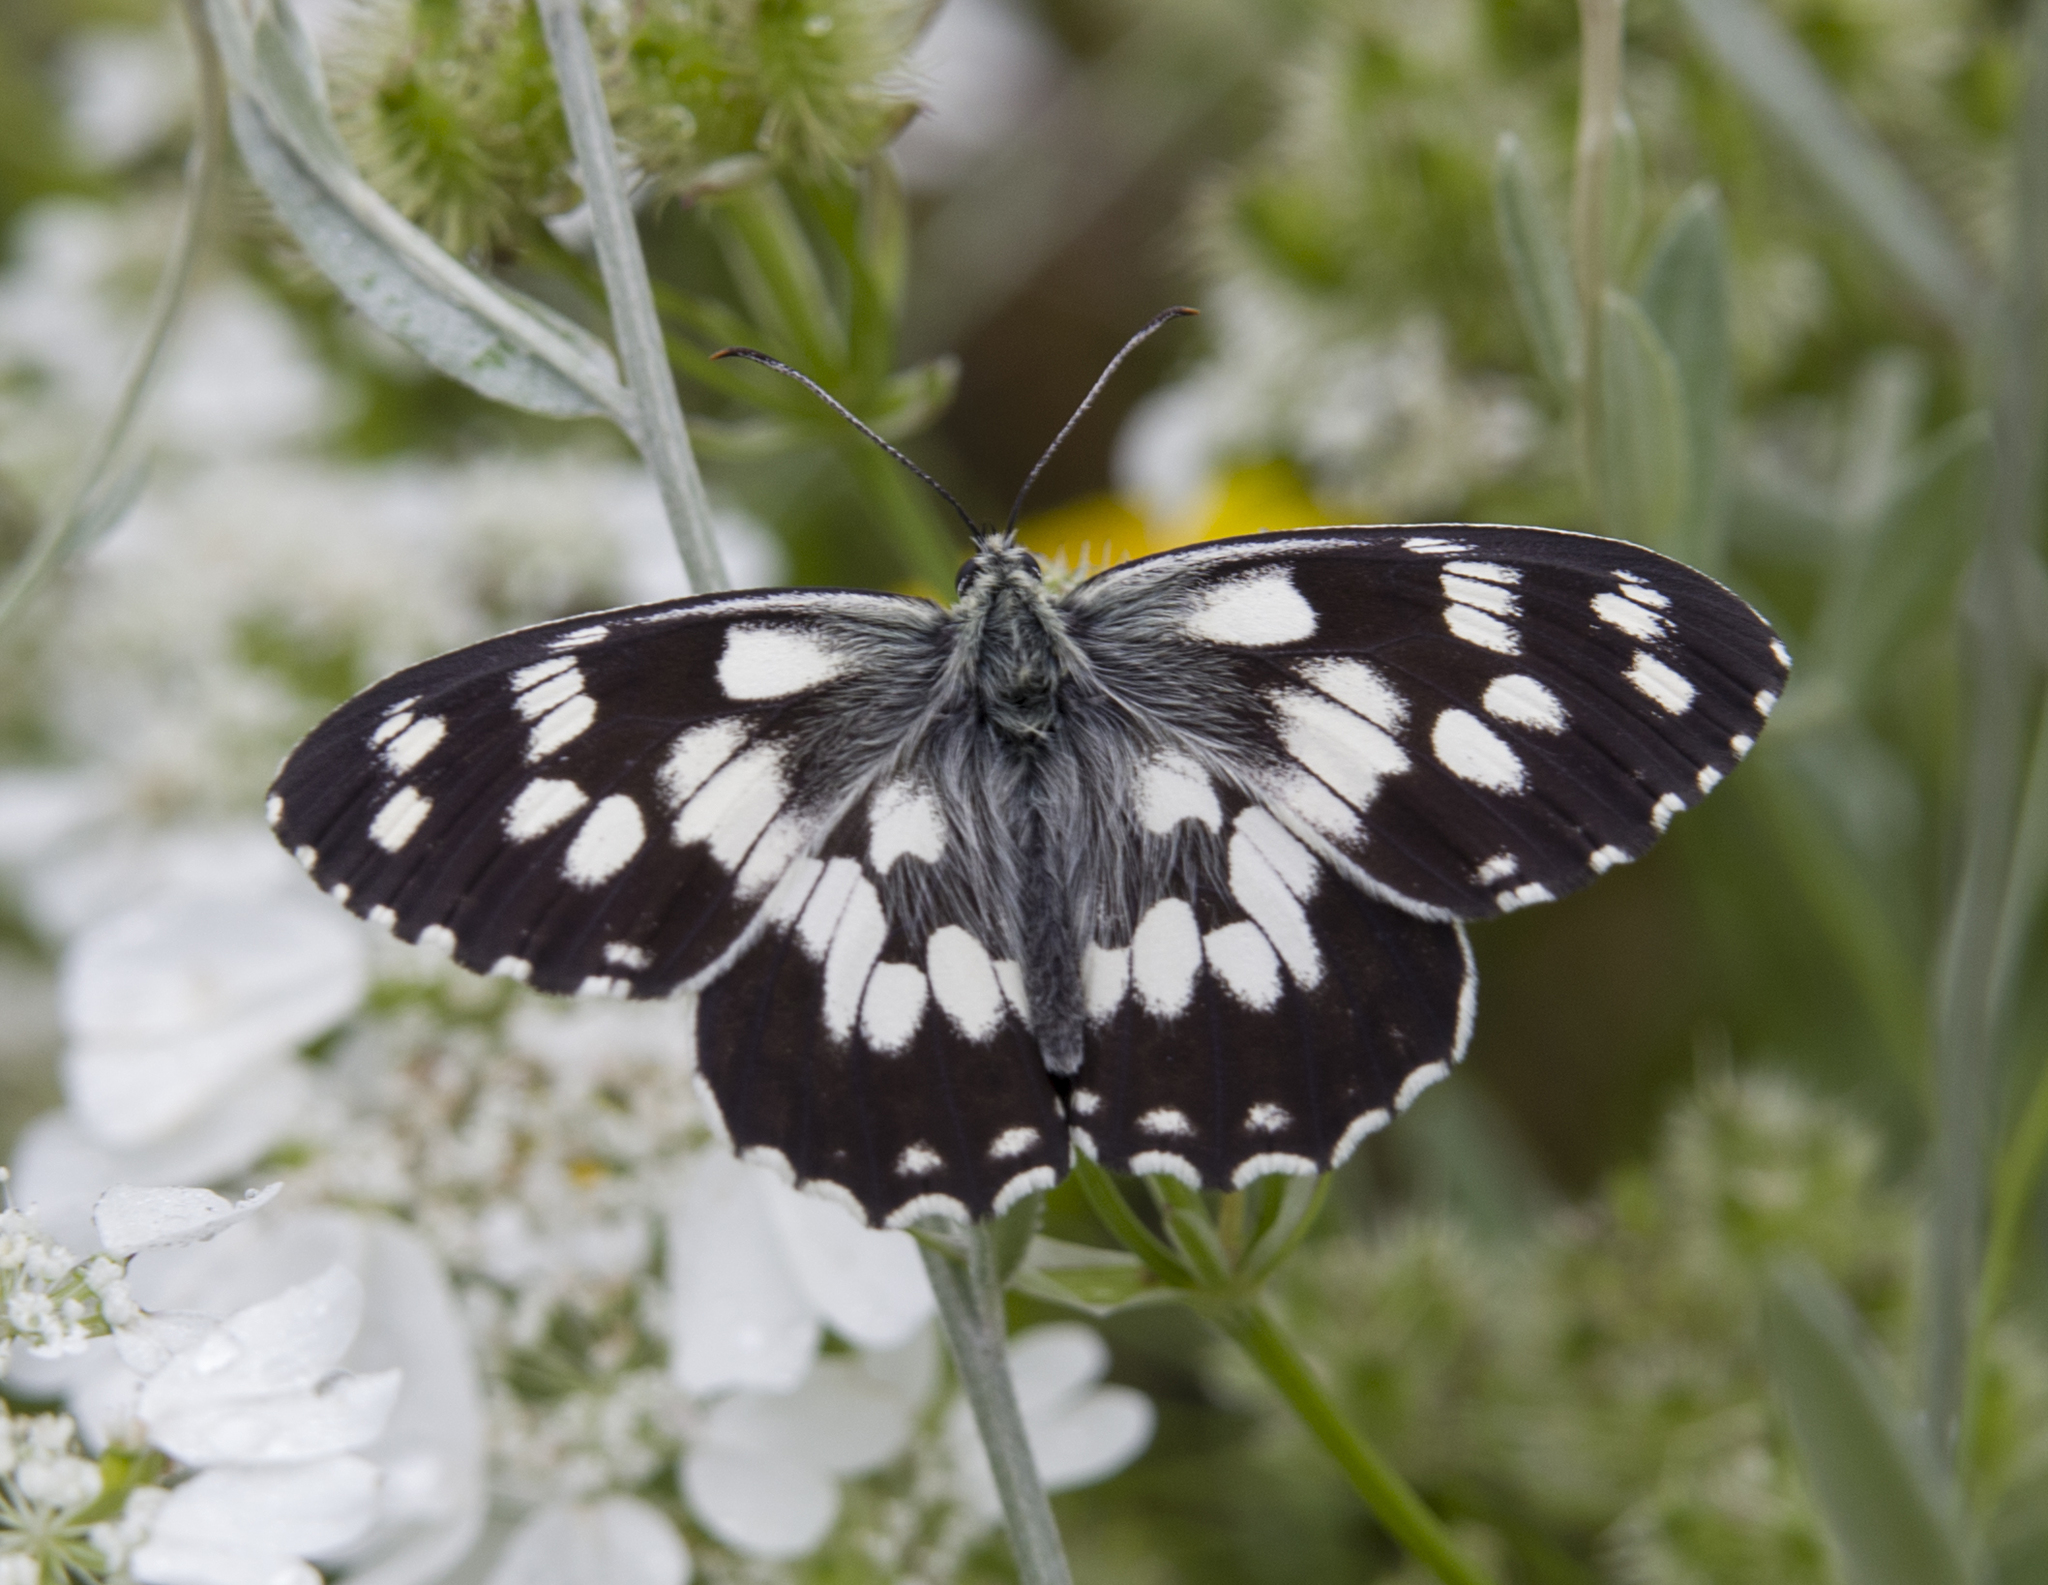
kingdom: Animalia
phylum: Arthropoda
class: Insecta
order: Lepidoptera
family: Nymphalidae
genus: Melanargia
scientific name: Melanargia galathea
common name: Marbled white
